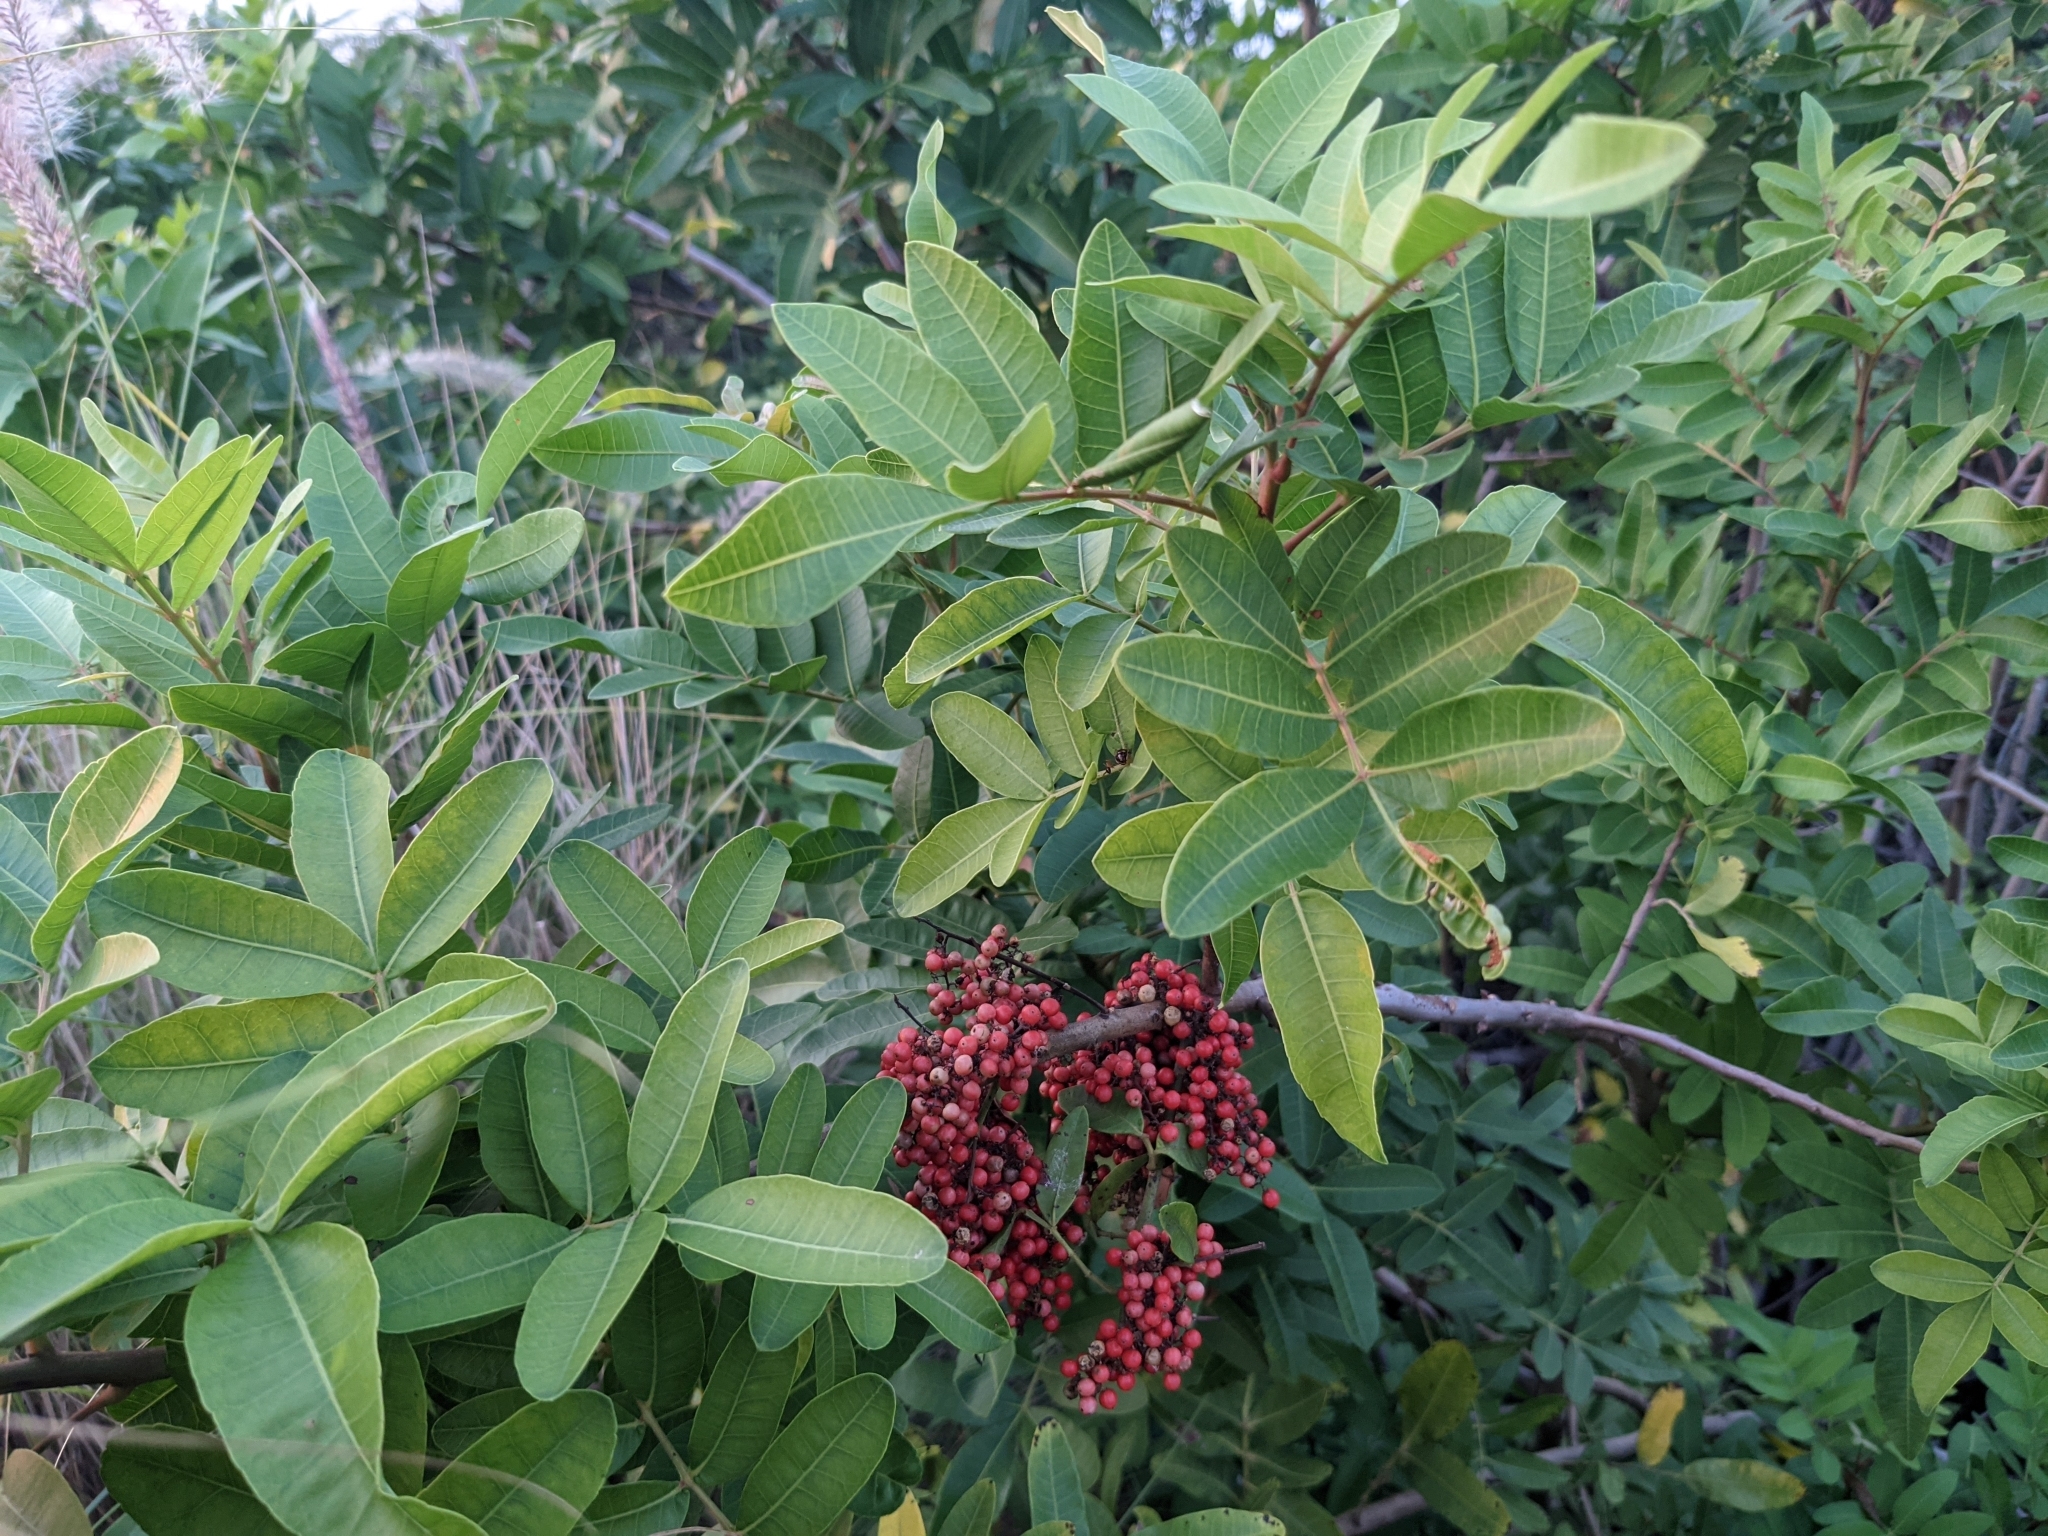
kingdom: Plantae
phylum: Tracheophyta
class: Magnoliopsida
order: Sapindales
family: Anacardiaceae
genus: Schinus
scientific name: Schinus terebinthifolia
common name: Brazilian peppertree
